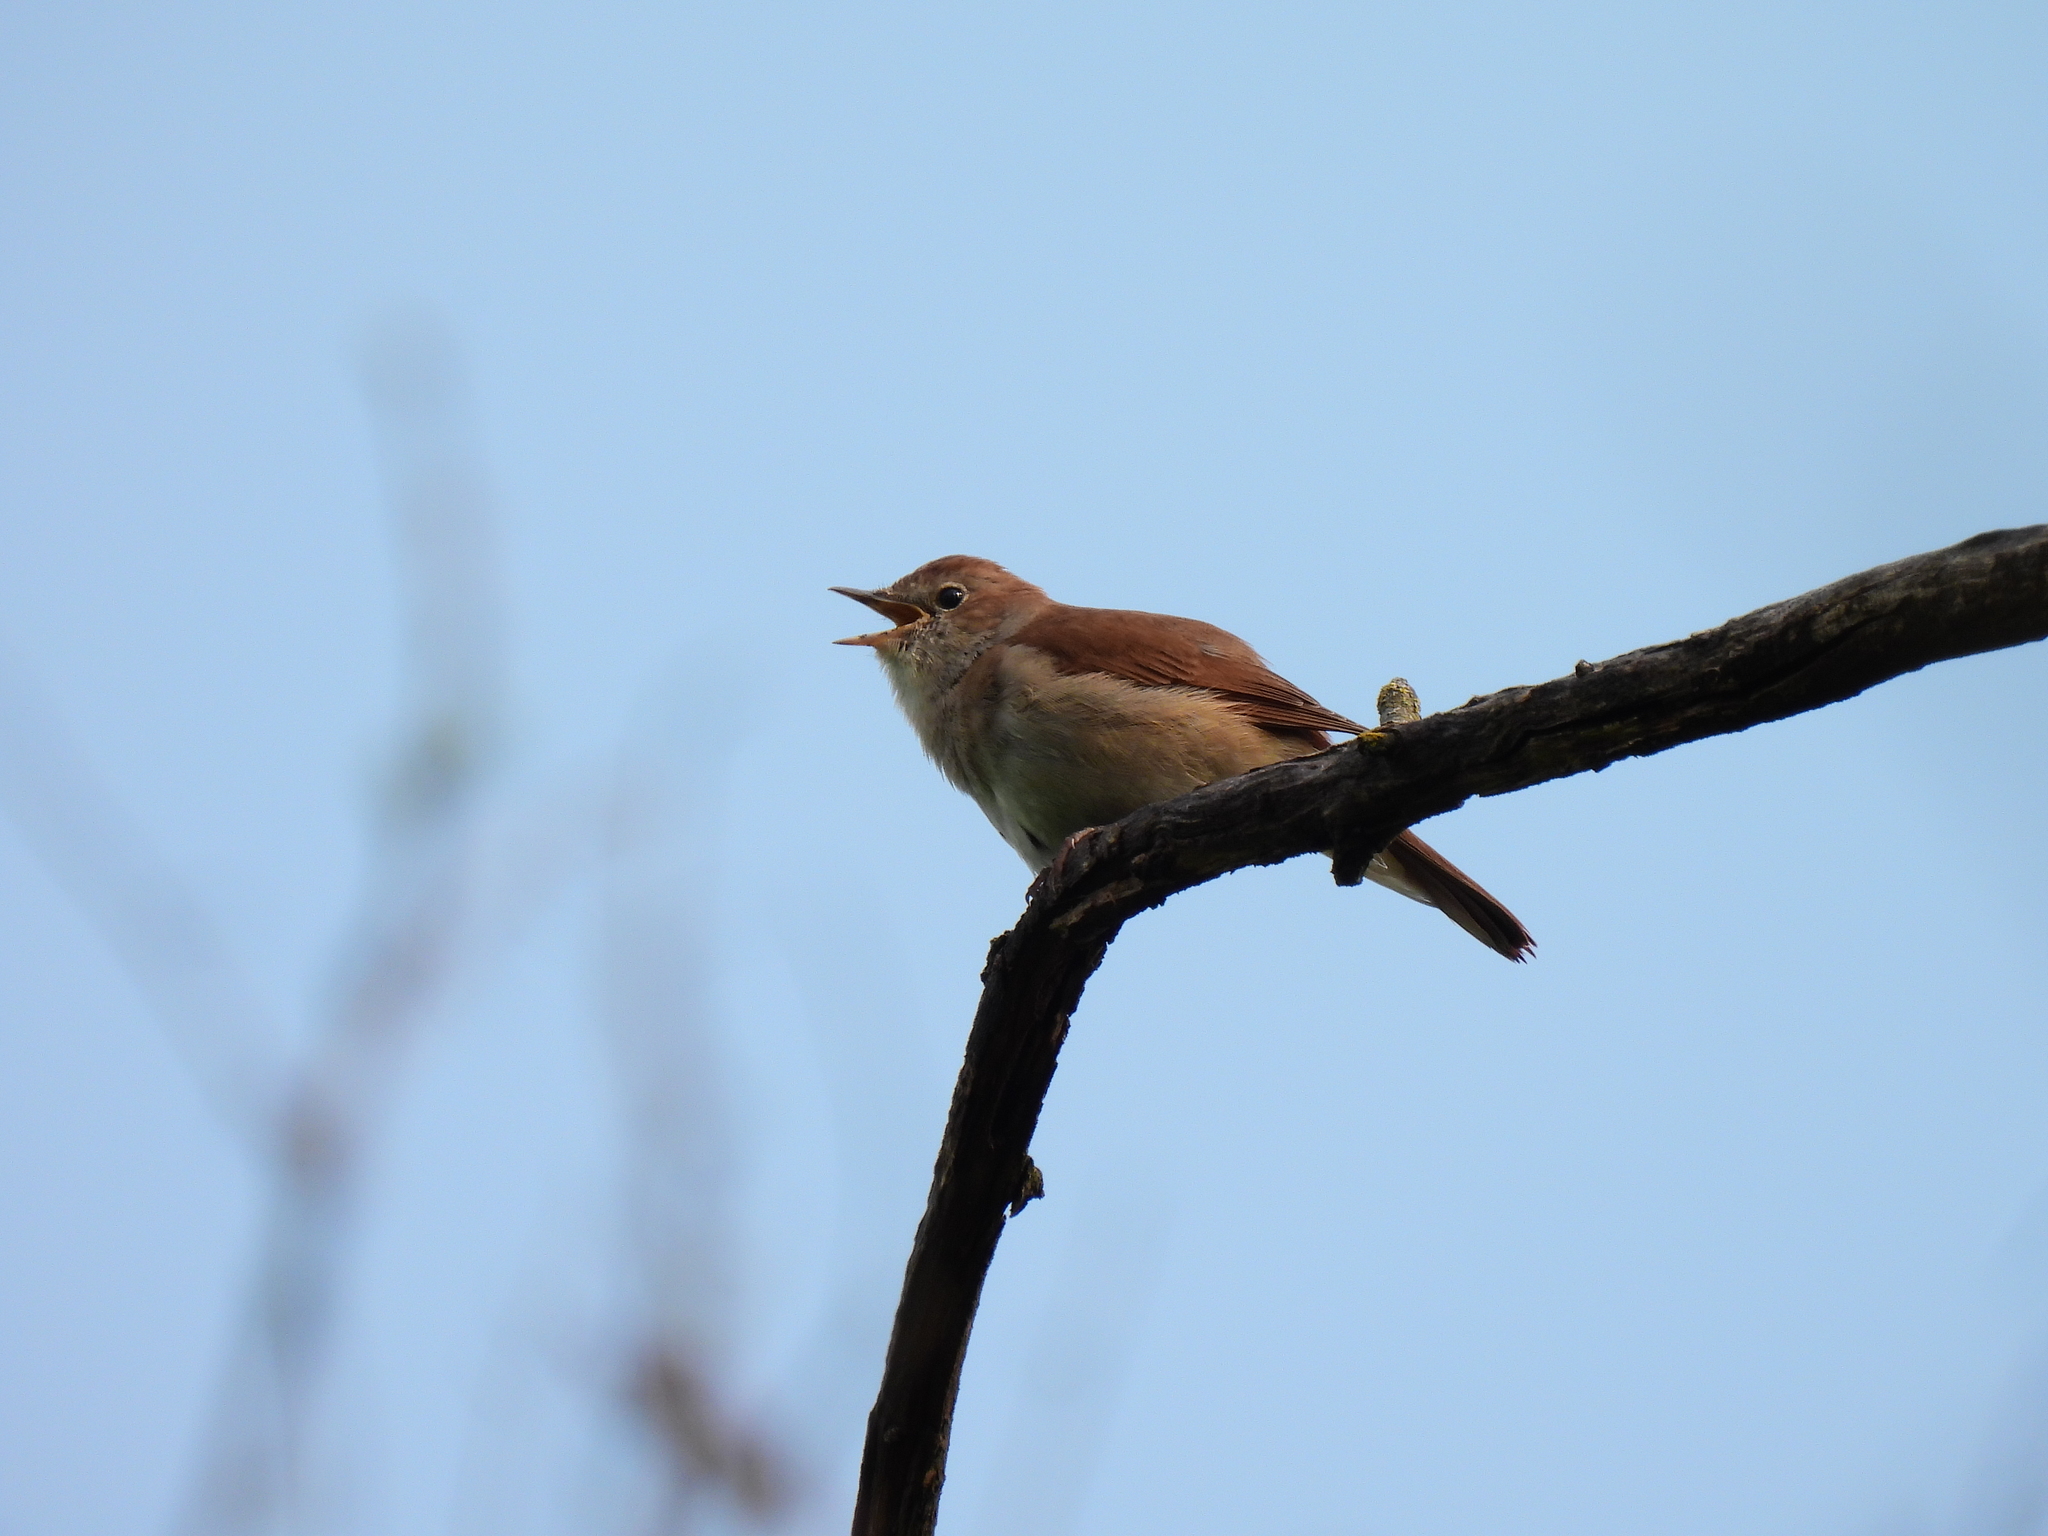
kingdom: Animalia
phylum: Chordata
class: Aves
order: Passeriformes
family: Muscicapidae
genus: Luscinia
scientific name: Luscinia megarhynchos
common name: Common nightingale
